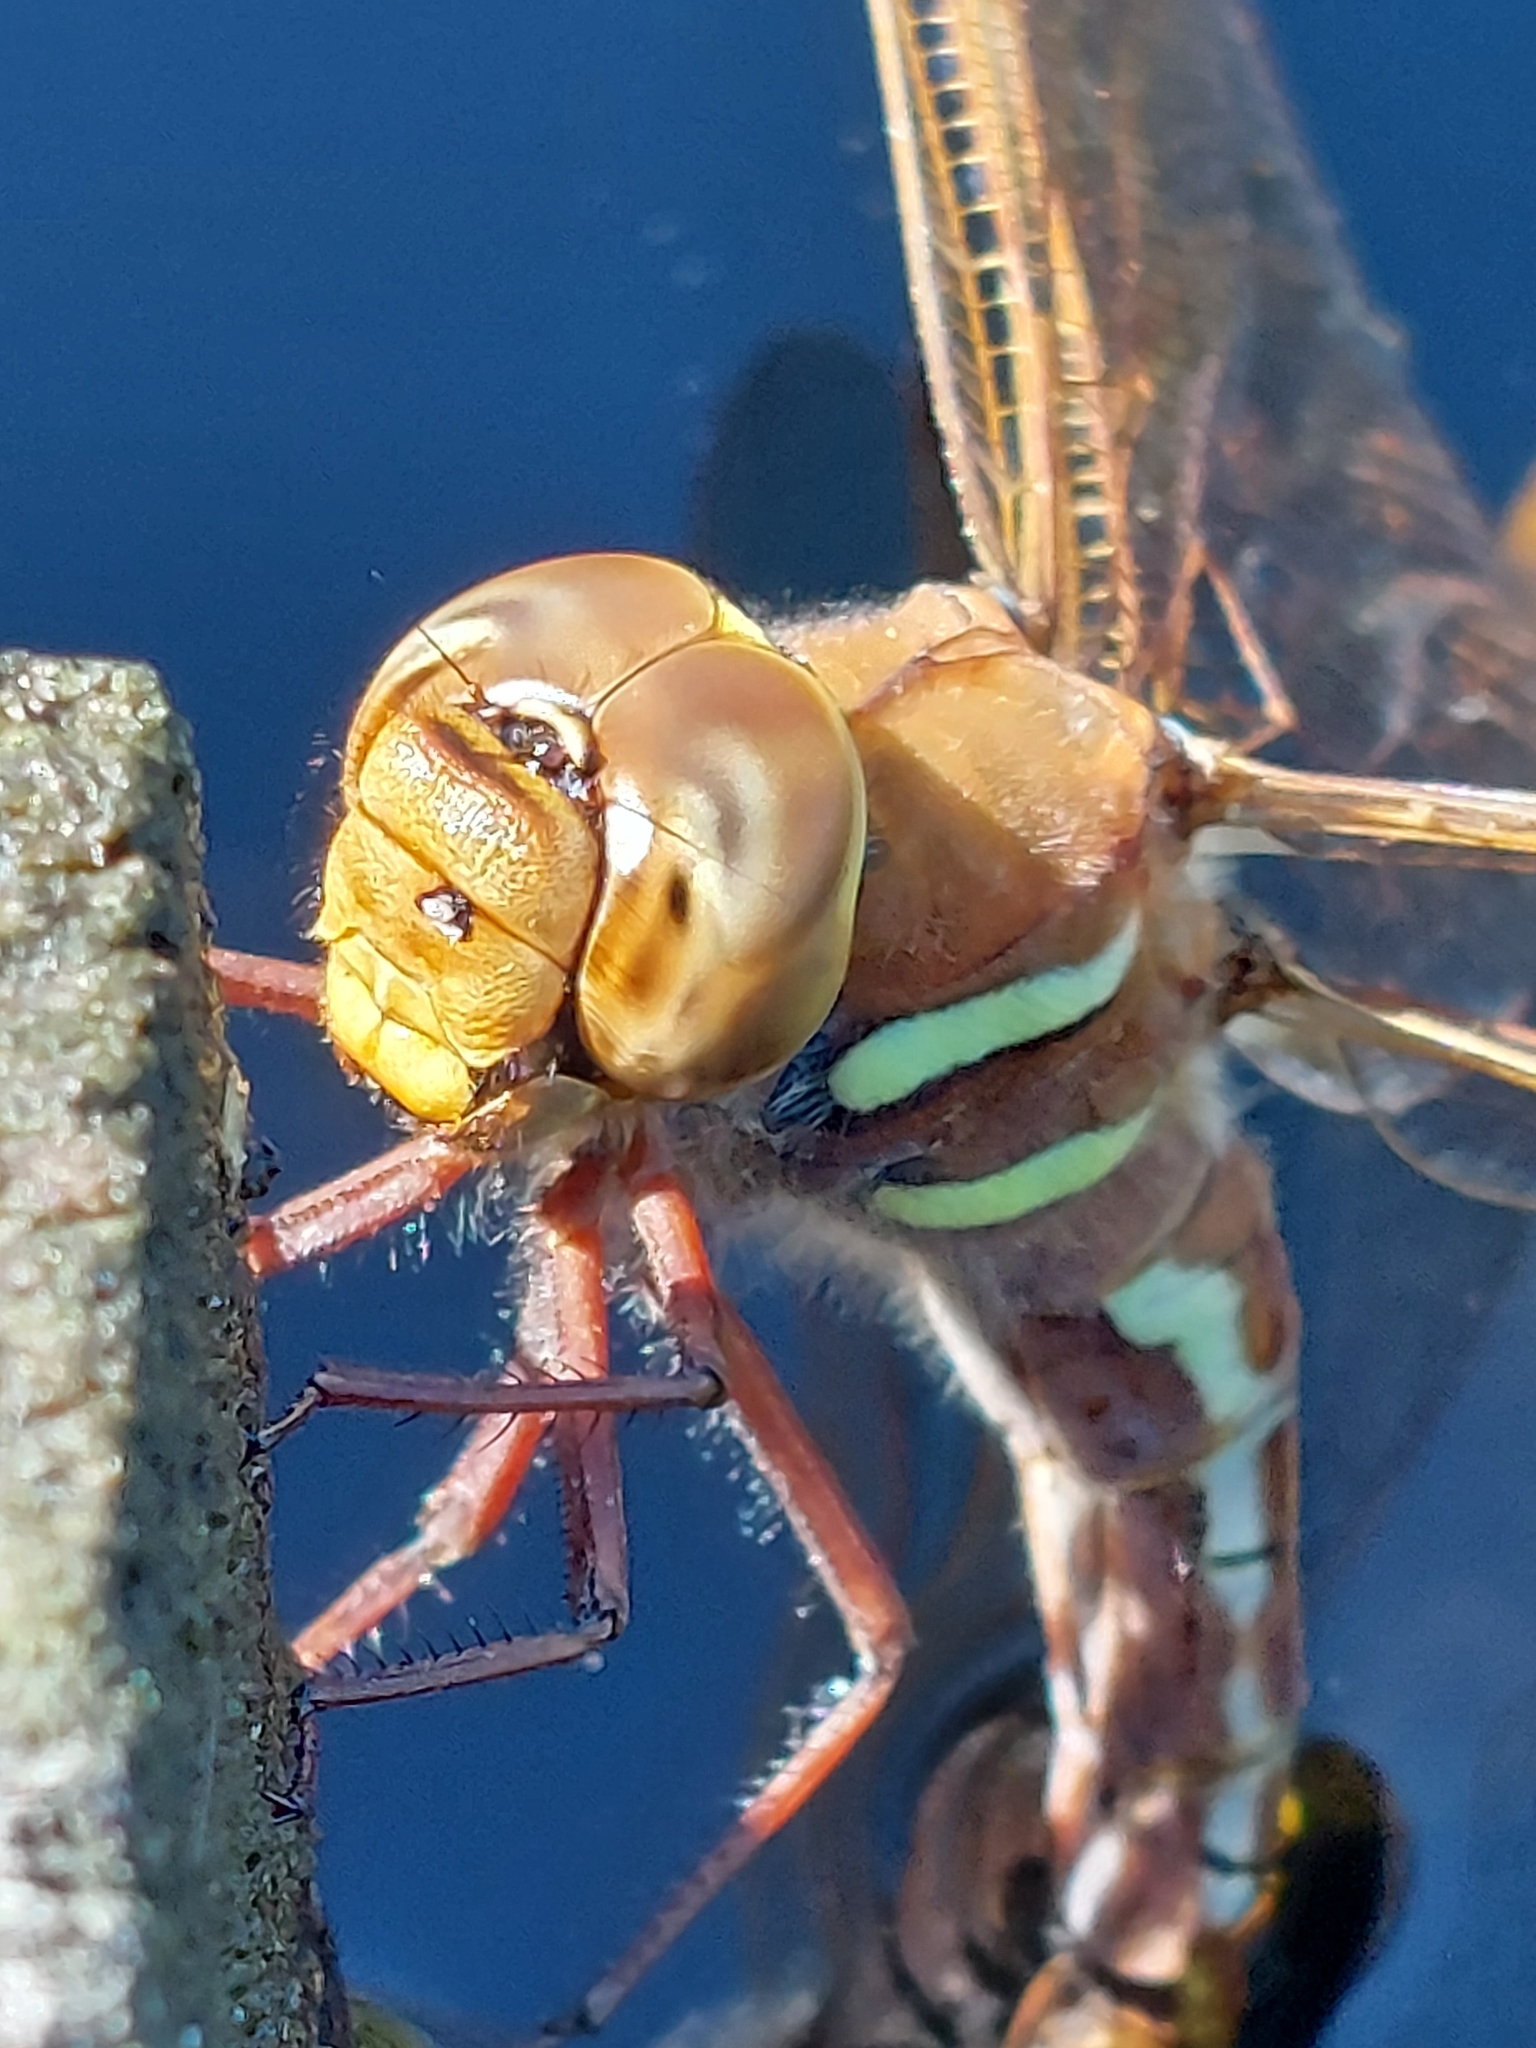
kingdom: Animalia
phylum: Arthropoda
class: Insecta
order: Odonata
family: Aeshnidae
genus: Aeshna
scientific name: Aeshna grandis
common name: Brown hawker
